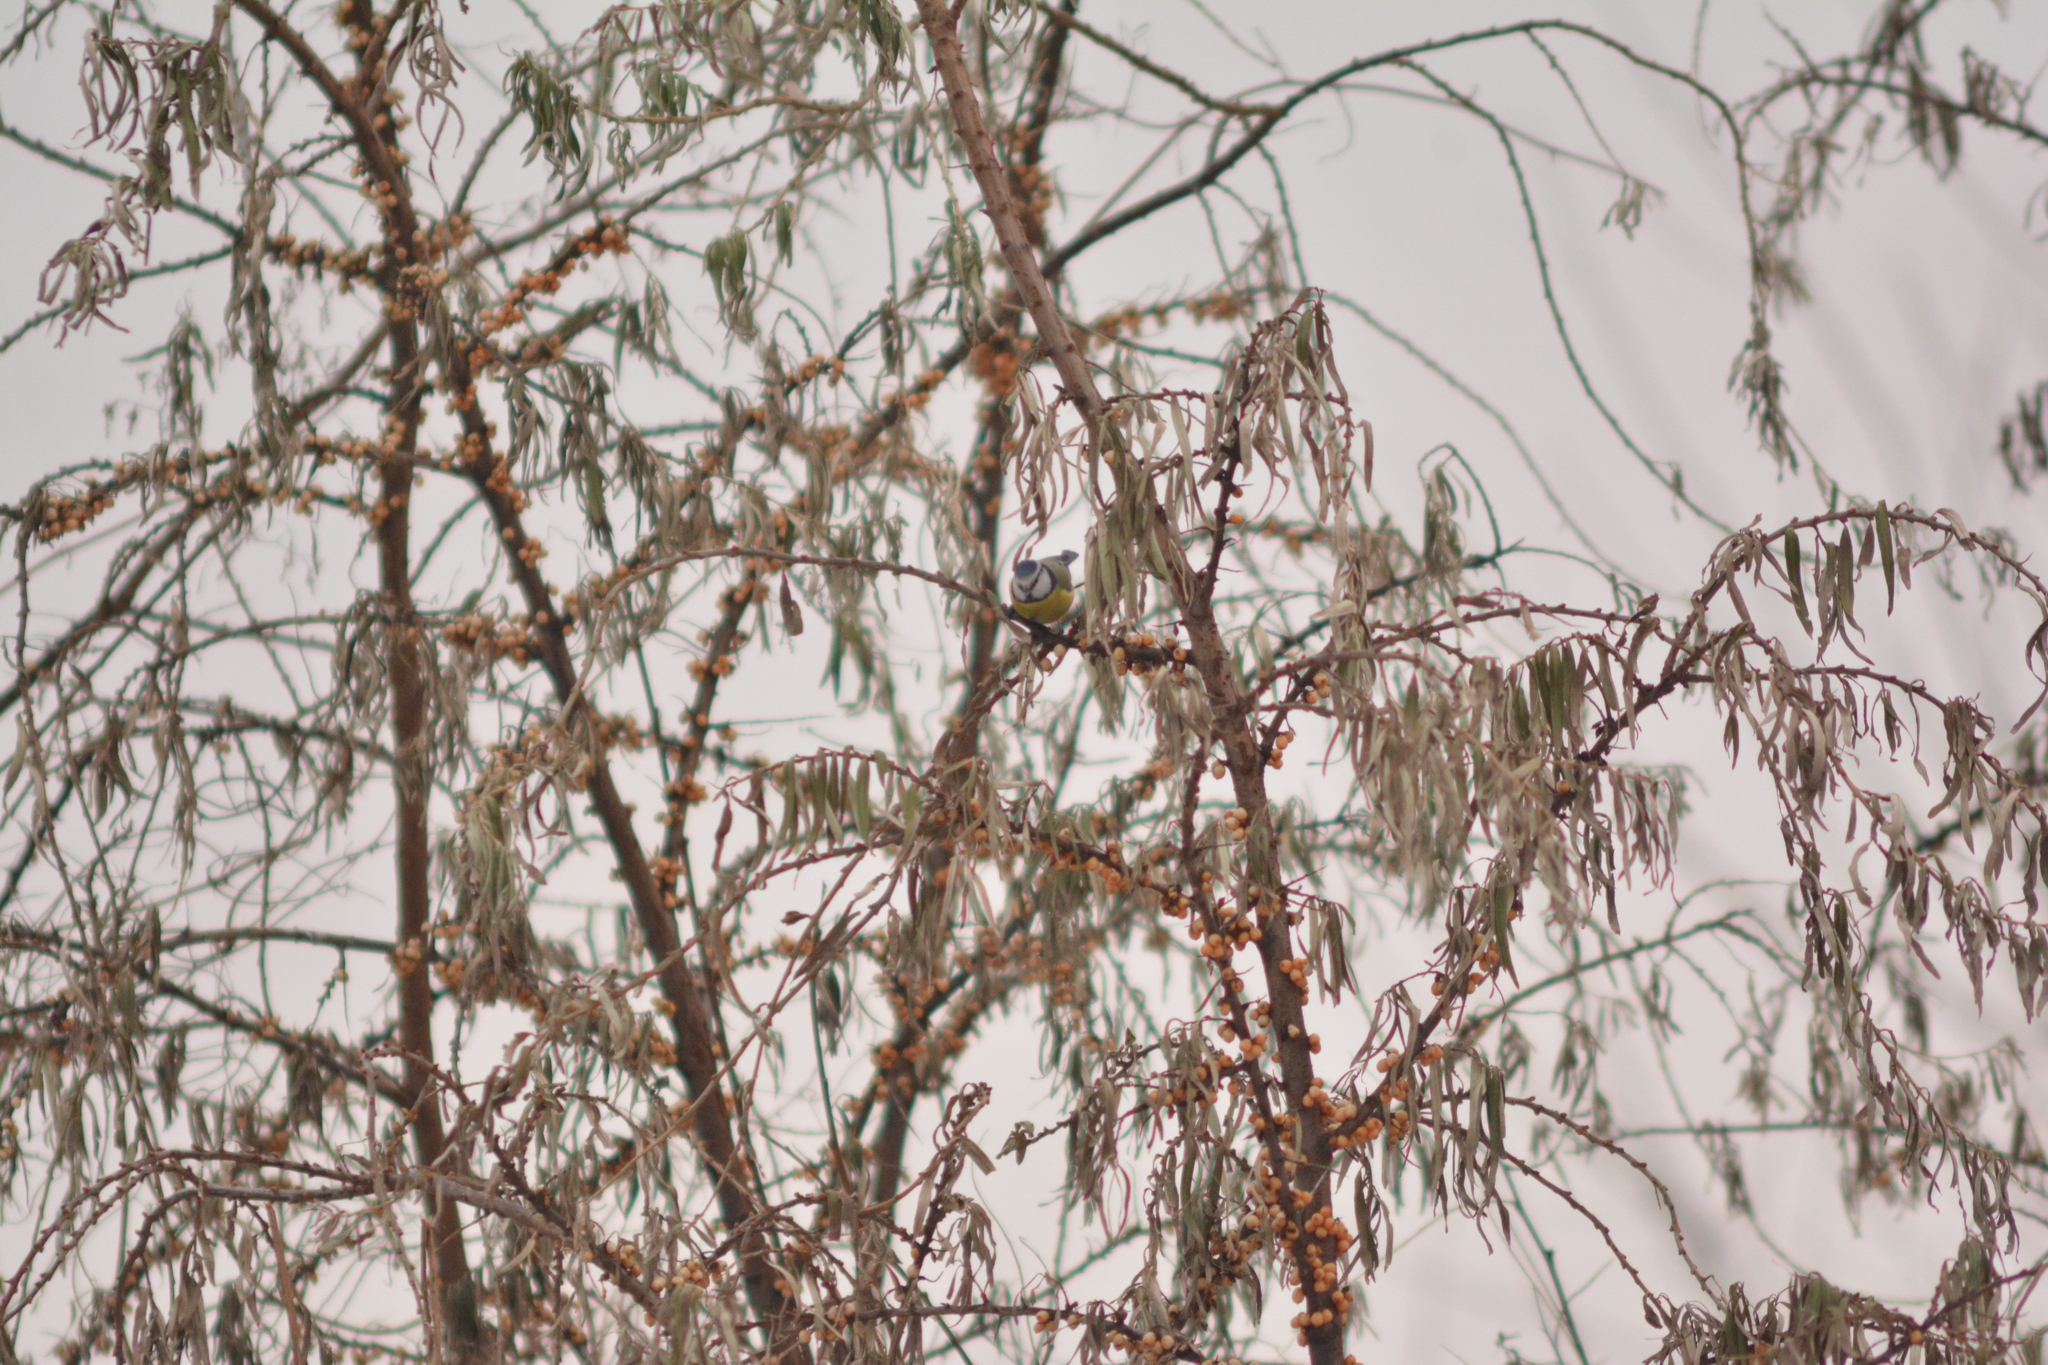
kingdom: Animalia
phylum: Chordata
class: Aves
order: Passeriformes
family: Paridae
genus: Cyanistes
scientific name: Cyanistes caeruleus
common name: Eurasian blue tit
